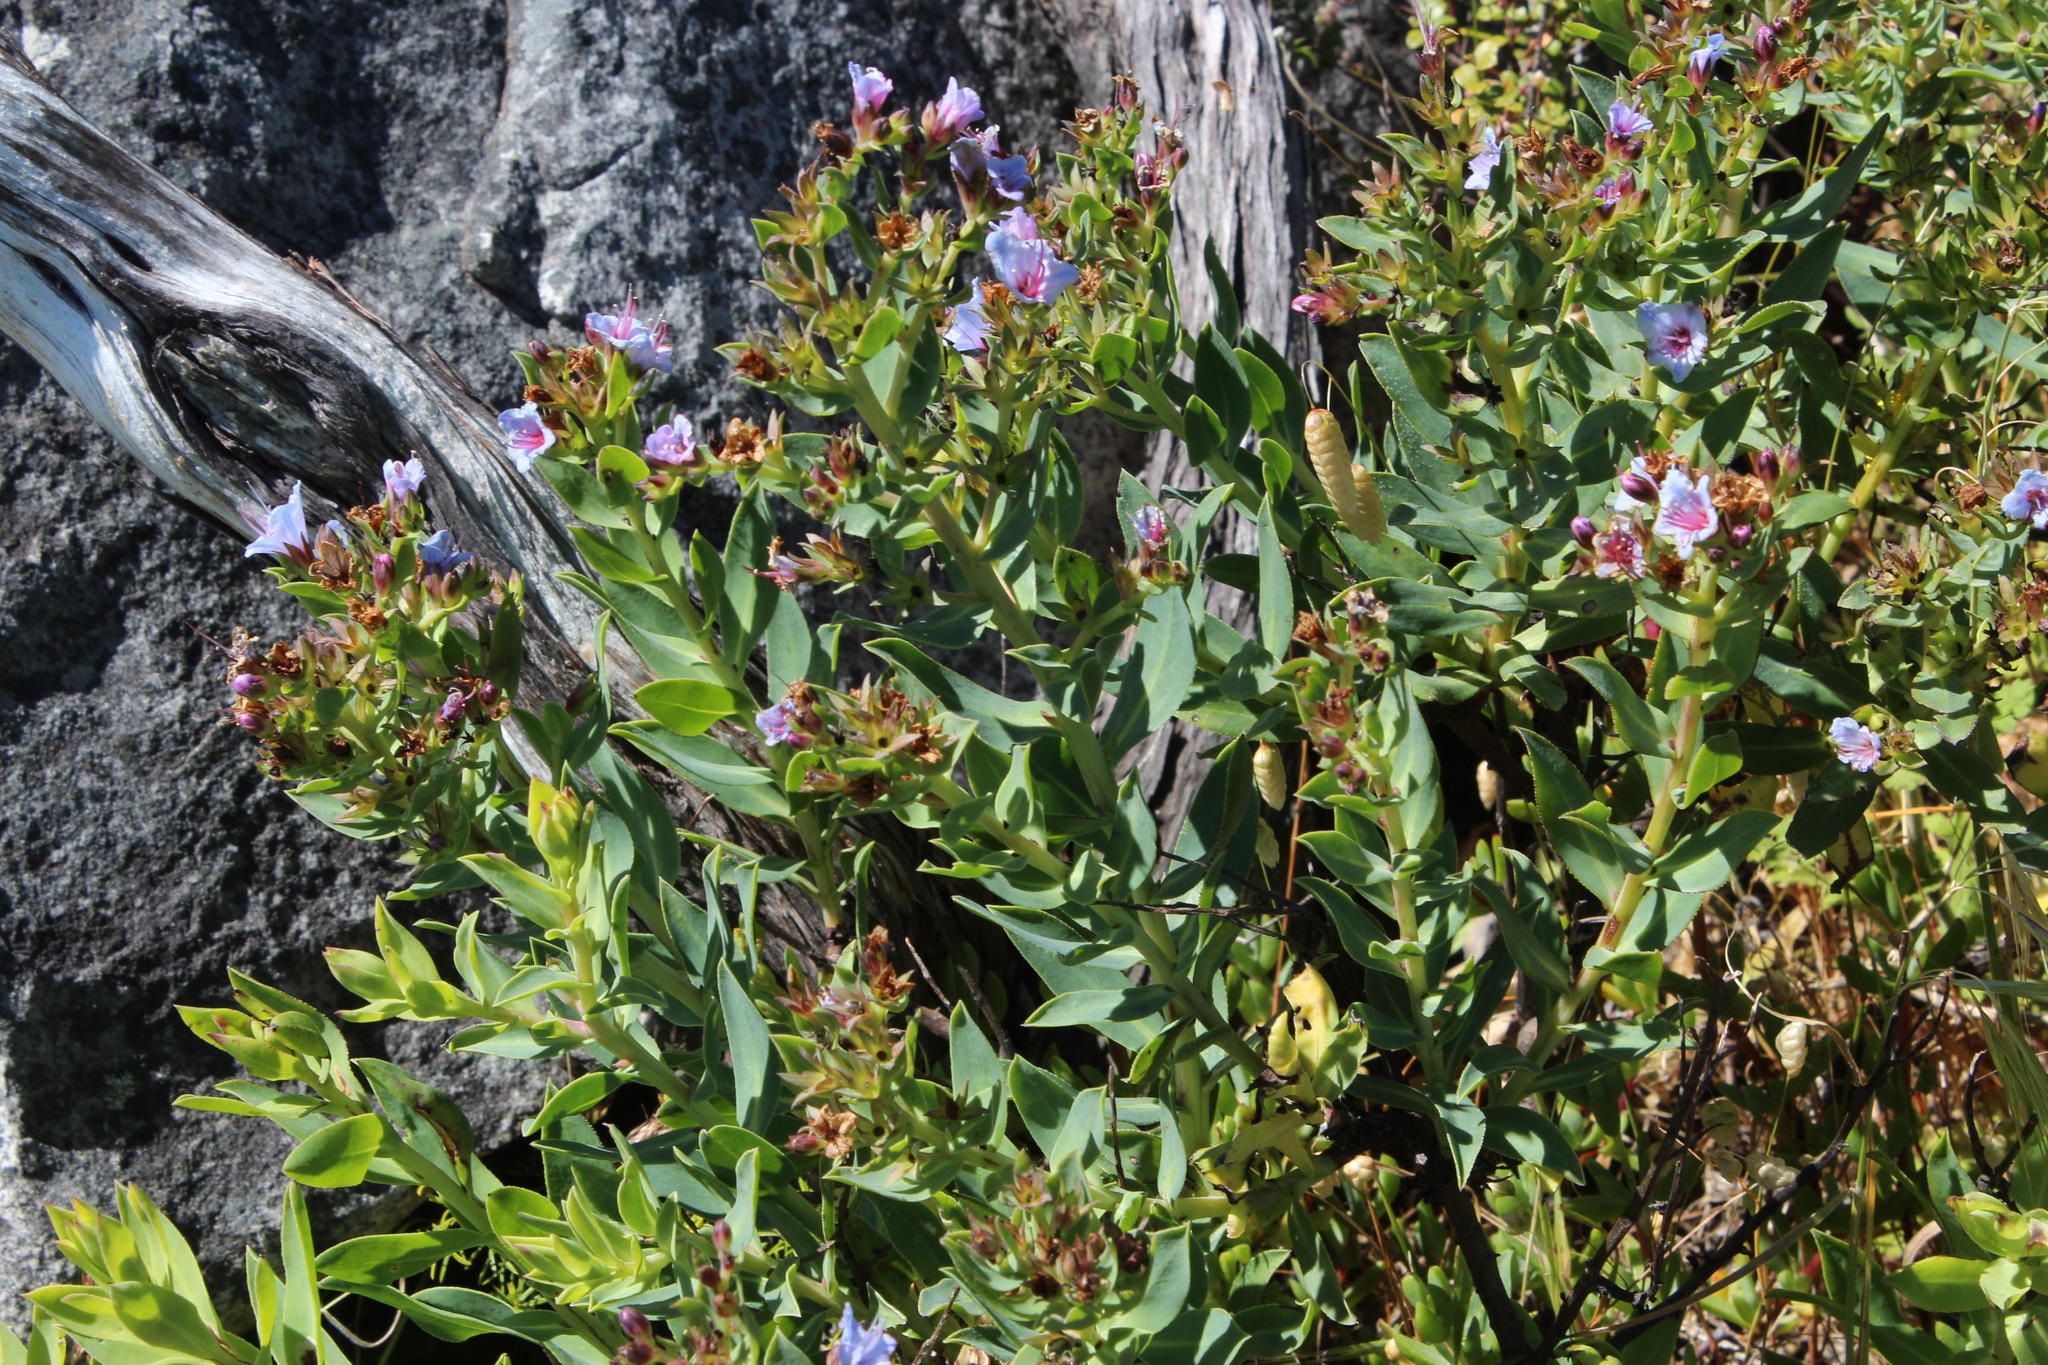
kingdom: Plantae
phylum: Tracheophyta
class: Magnoliopsida
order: Boraginales
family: Boraginaceae
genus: Lobostemon
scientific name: Lobostemon glaucophyllus
